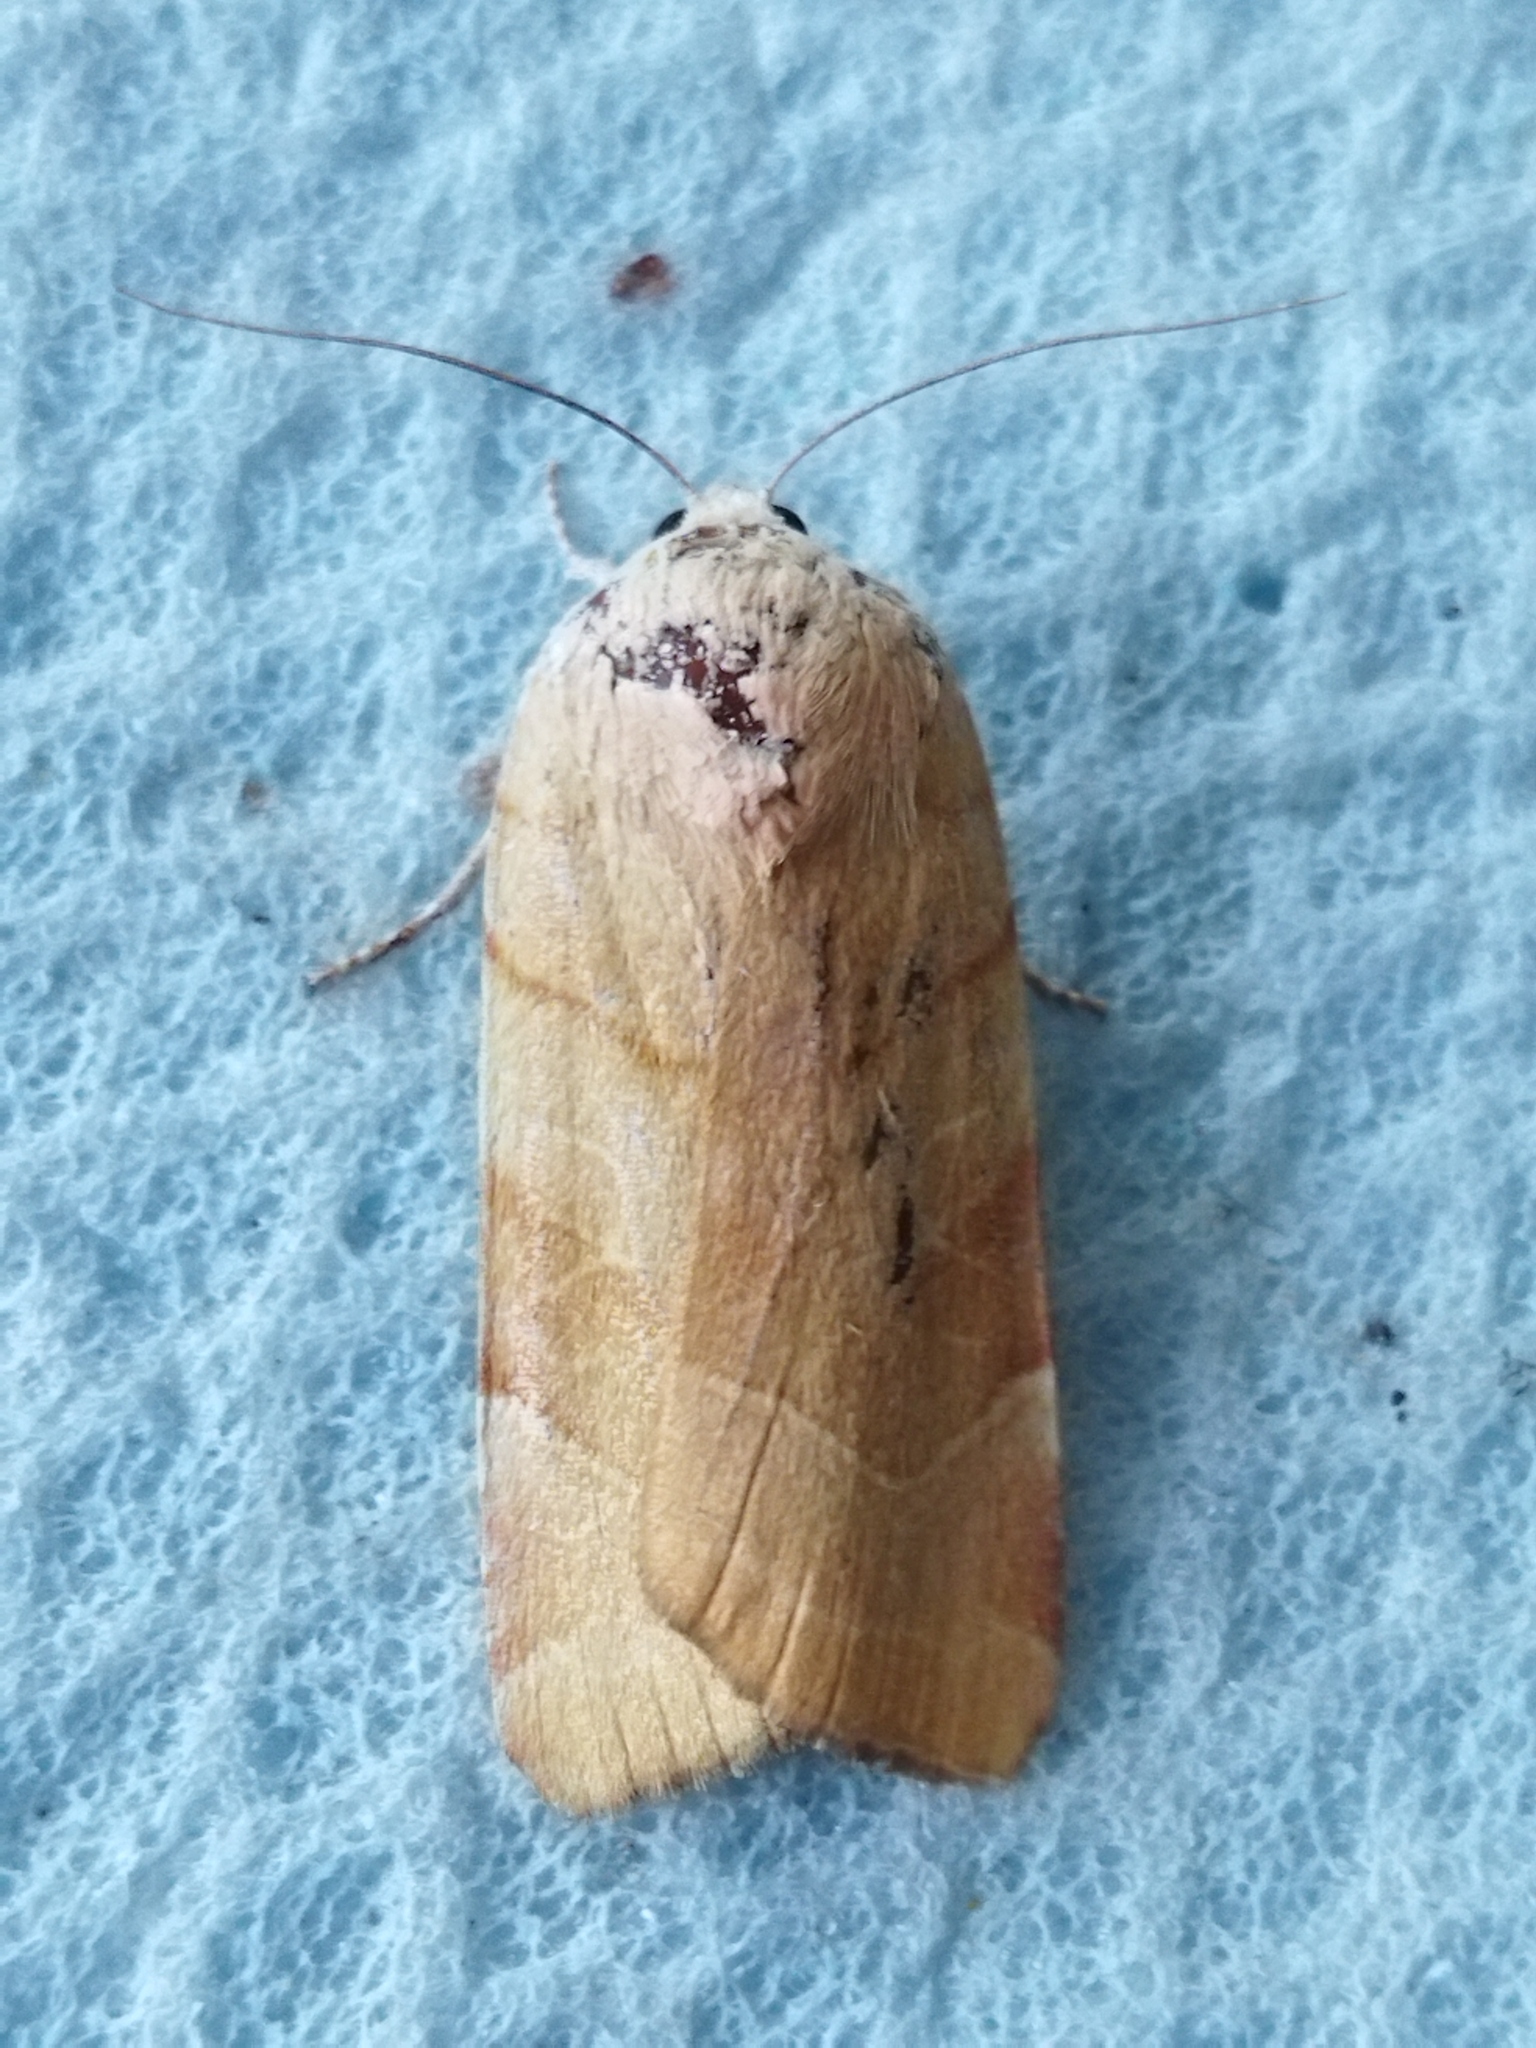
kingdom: Animalia
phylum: Arthropoda
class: Insecta
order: Lepidoptera
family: Noctuidae
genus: Noctua
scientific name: Noctua fimbriata
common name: Broad-bordered yellow underwing
